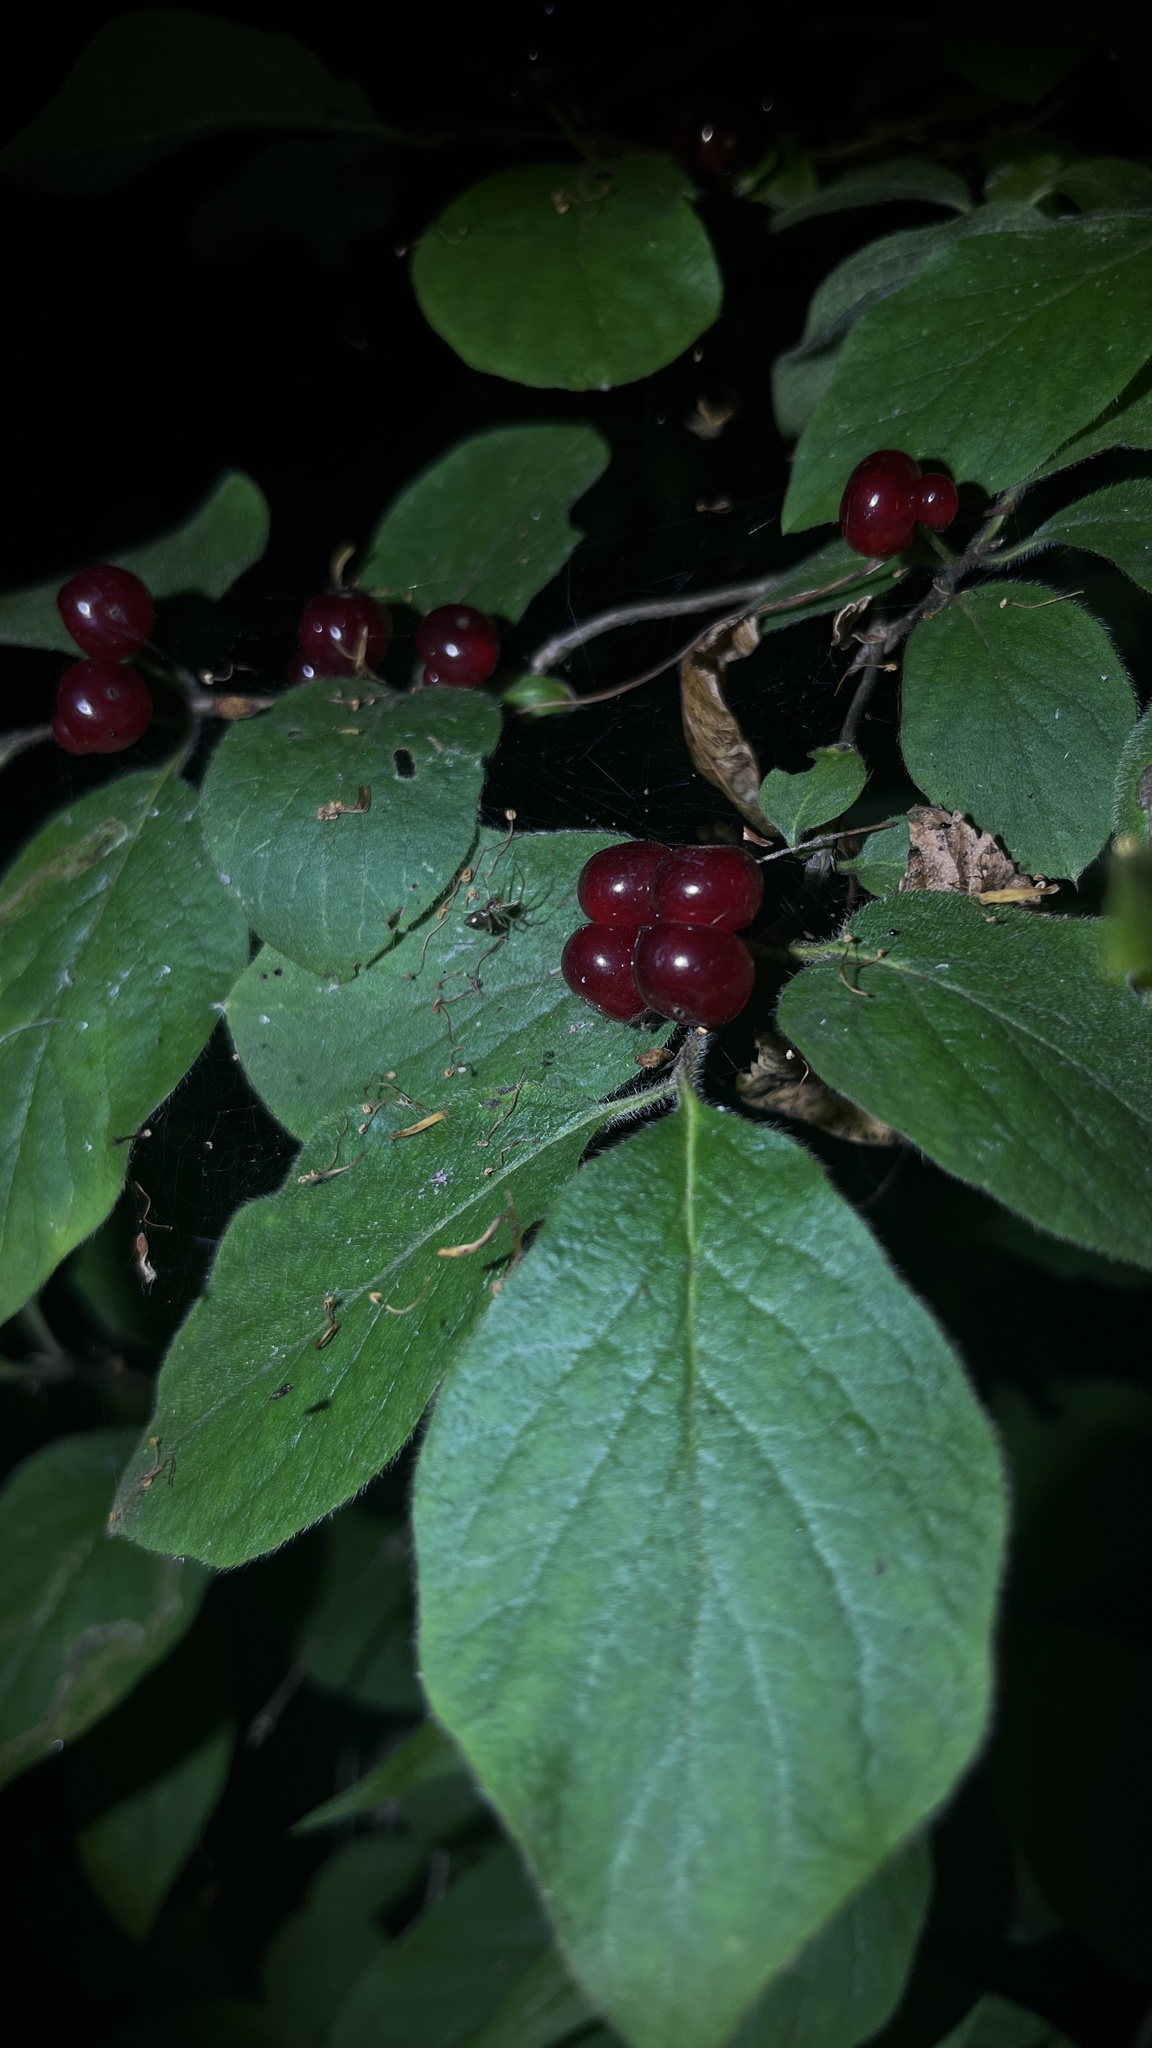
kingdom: Plantae
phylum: Tracheophyta
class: Magnoliopsida
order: Dipsacales
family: Caprifoliaceae
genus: Lonicera
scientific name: Lonicera xylosteum
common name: Fly honeysuckle
